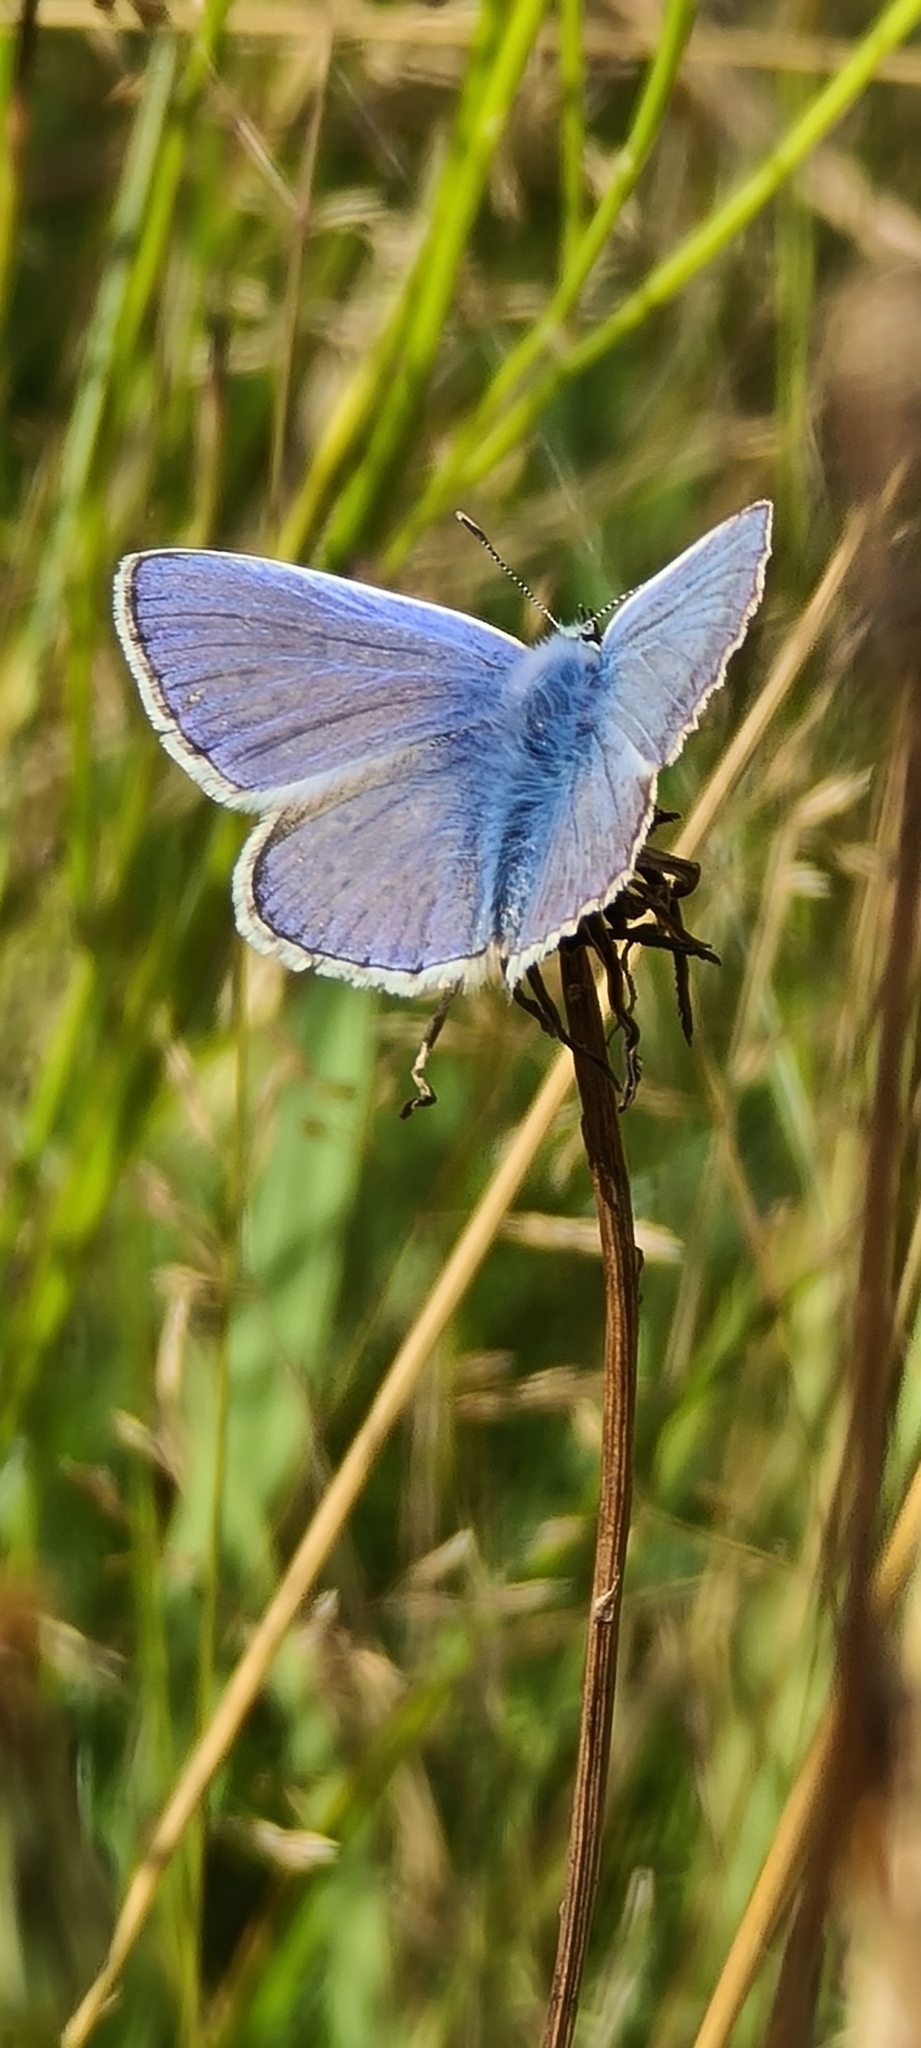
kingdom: Animalia
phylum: Arthropoda
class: Insecta
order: Lepidoptera
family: Lycaenidae
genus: Polyommatus
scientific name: Polyommatus icarus
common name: Common blue
